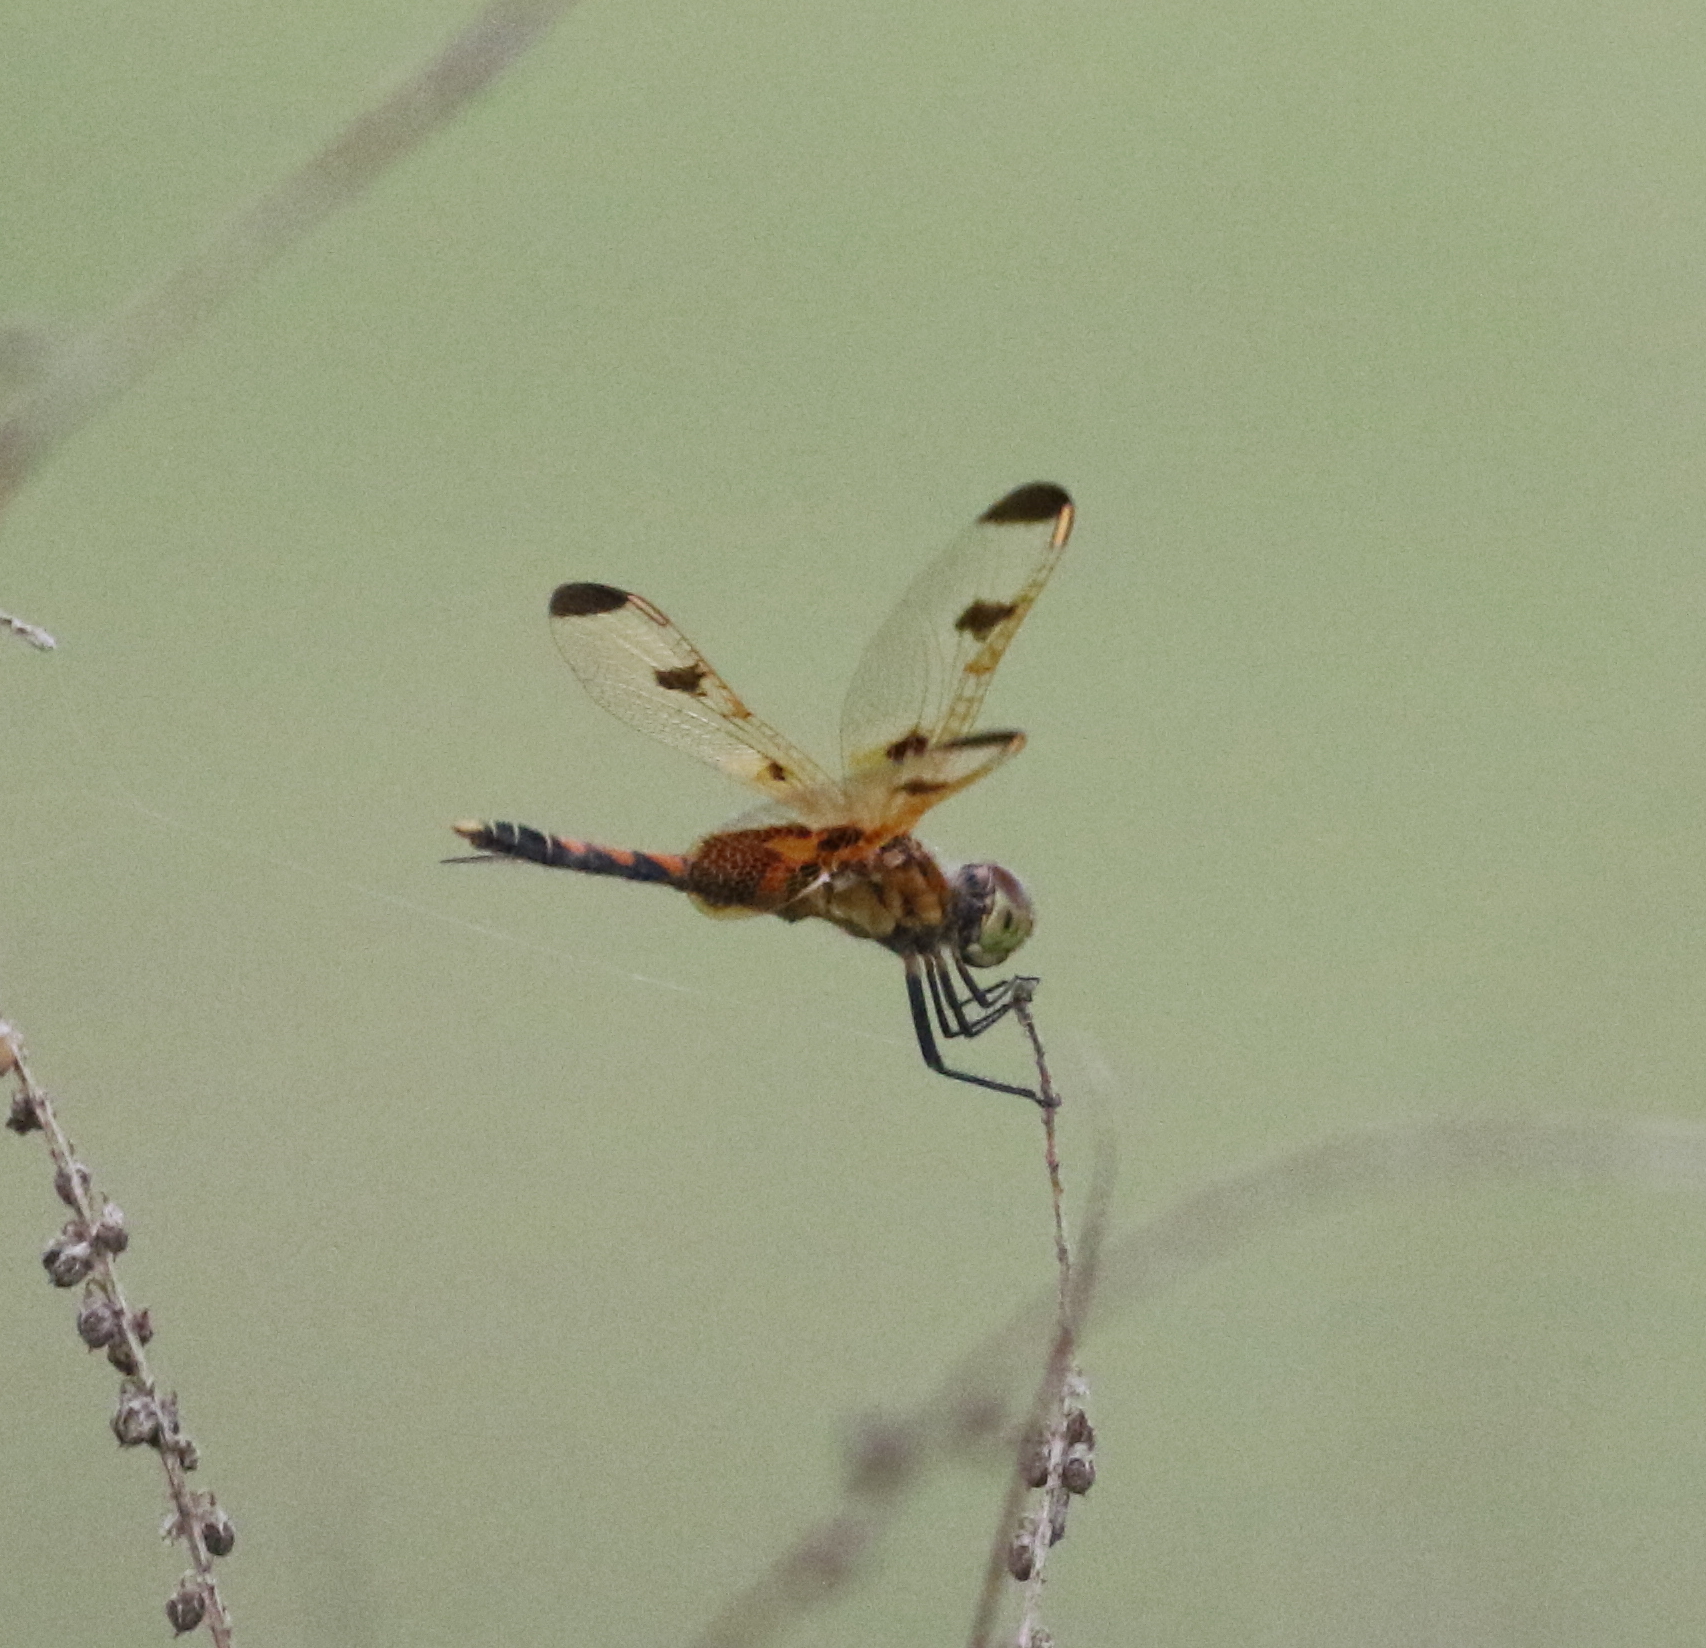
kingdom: Animalia
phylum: Arthropoda
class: Insecta
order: Odonata
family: Libellulidae
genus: Celithemis
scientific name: Celithemis elisa
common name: Calico pennant
